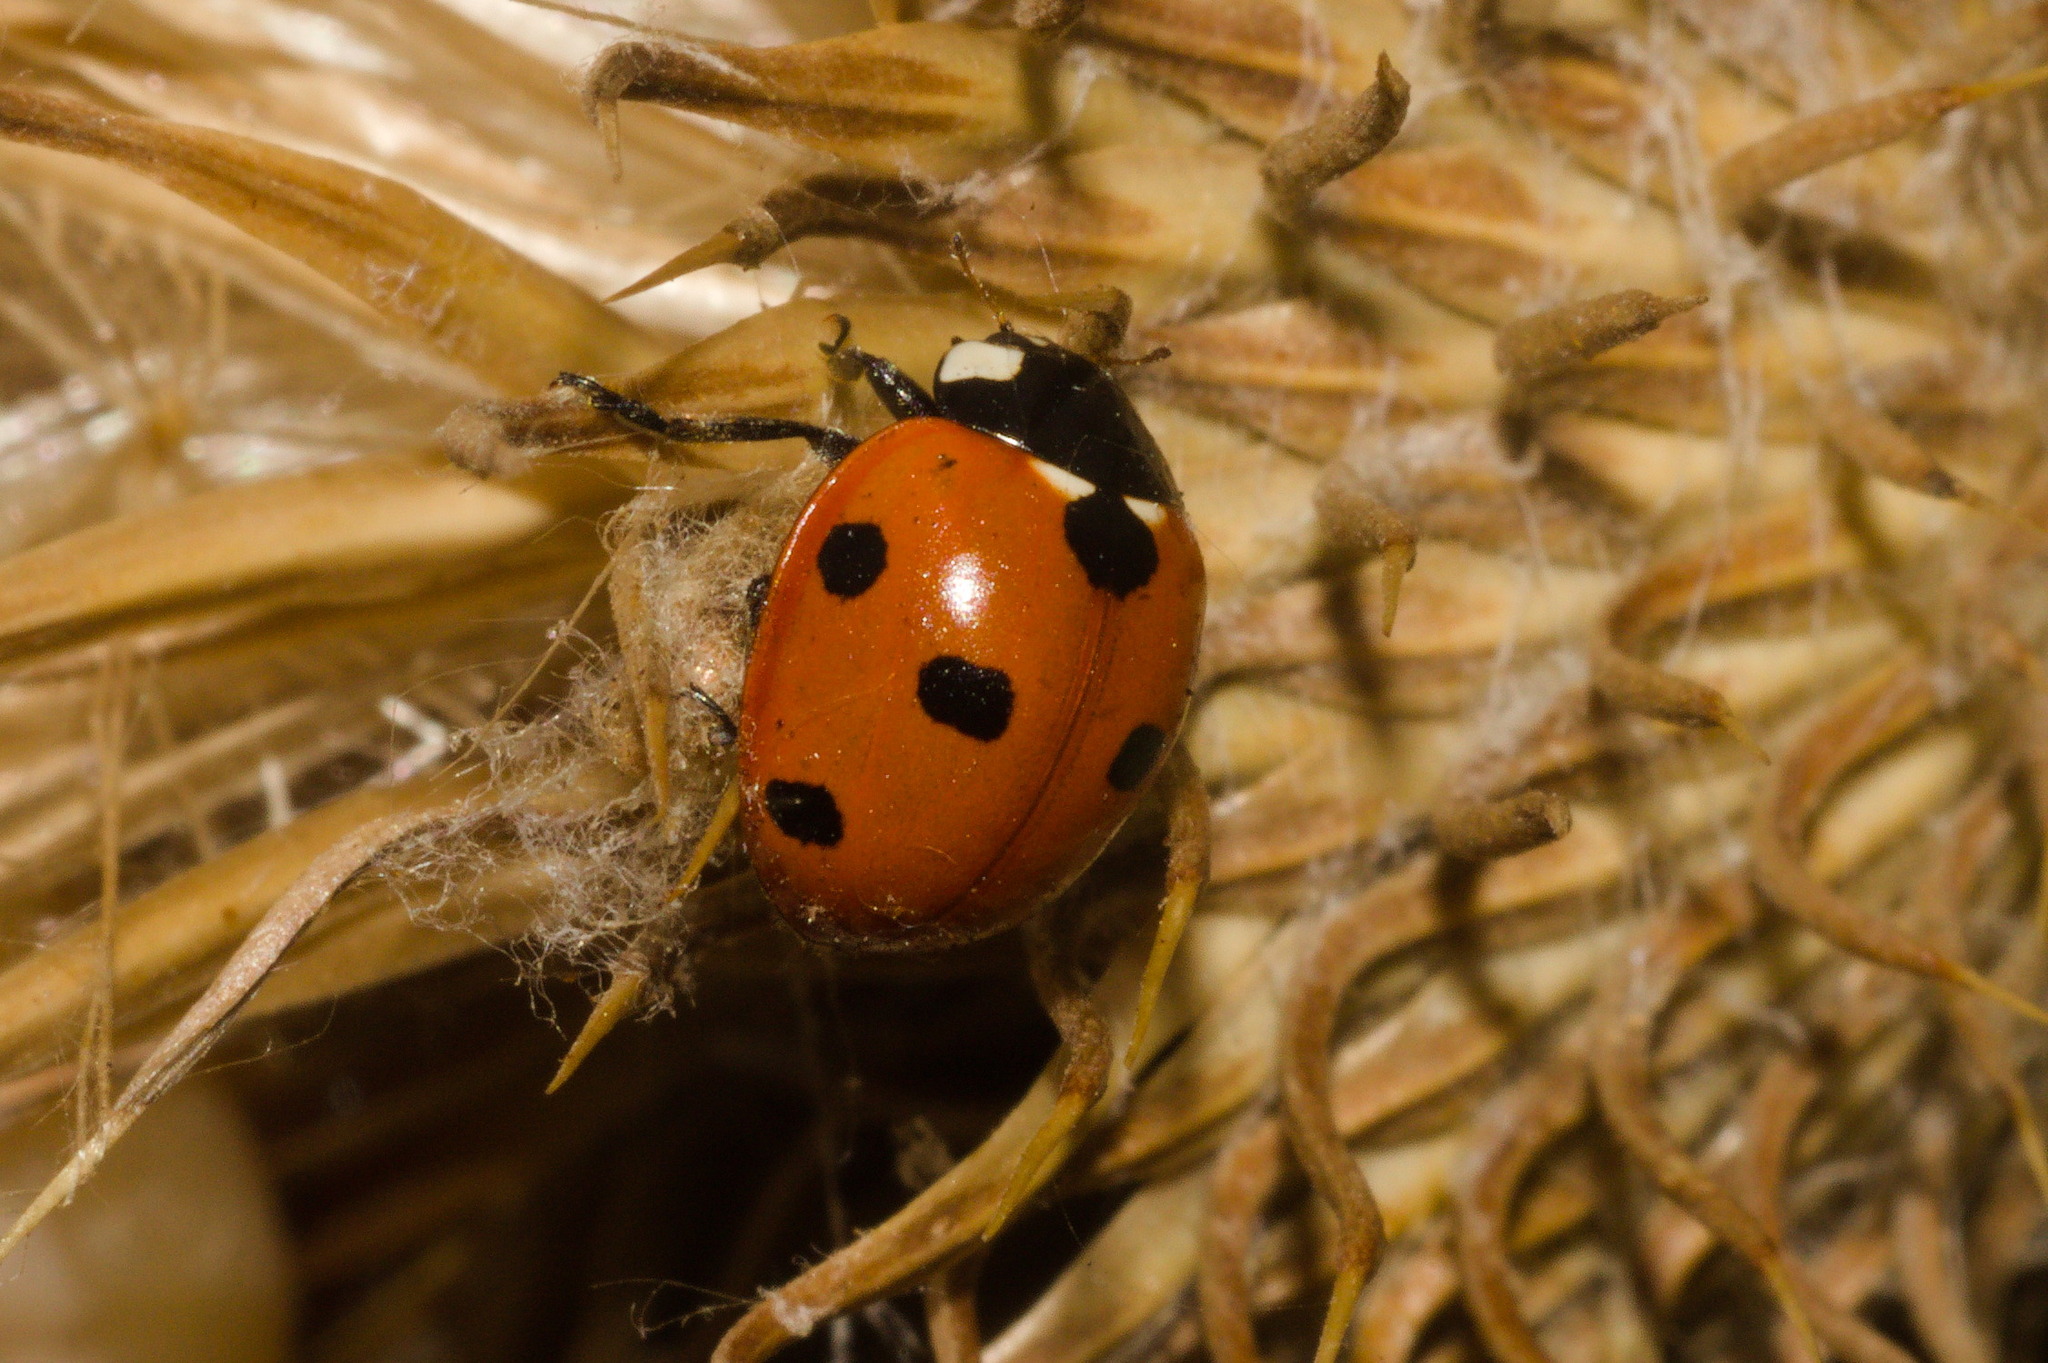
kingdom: Animalia
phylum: Arthropoda
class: Insecta
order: Coleoptera
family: Coccinellidae
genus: Coccinella
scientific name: Coccinella septempunctata
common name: Sevenspotted lady beetle
